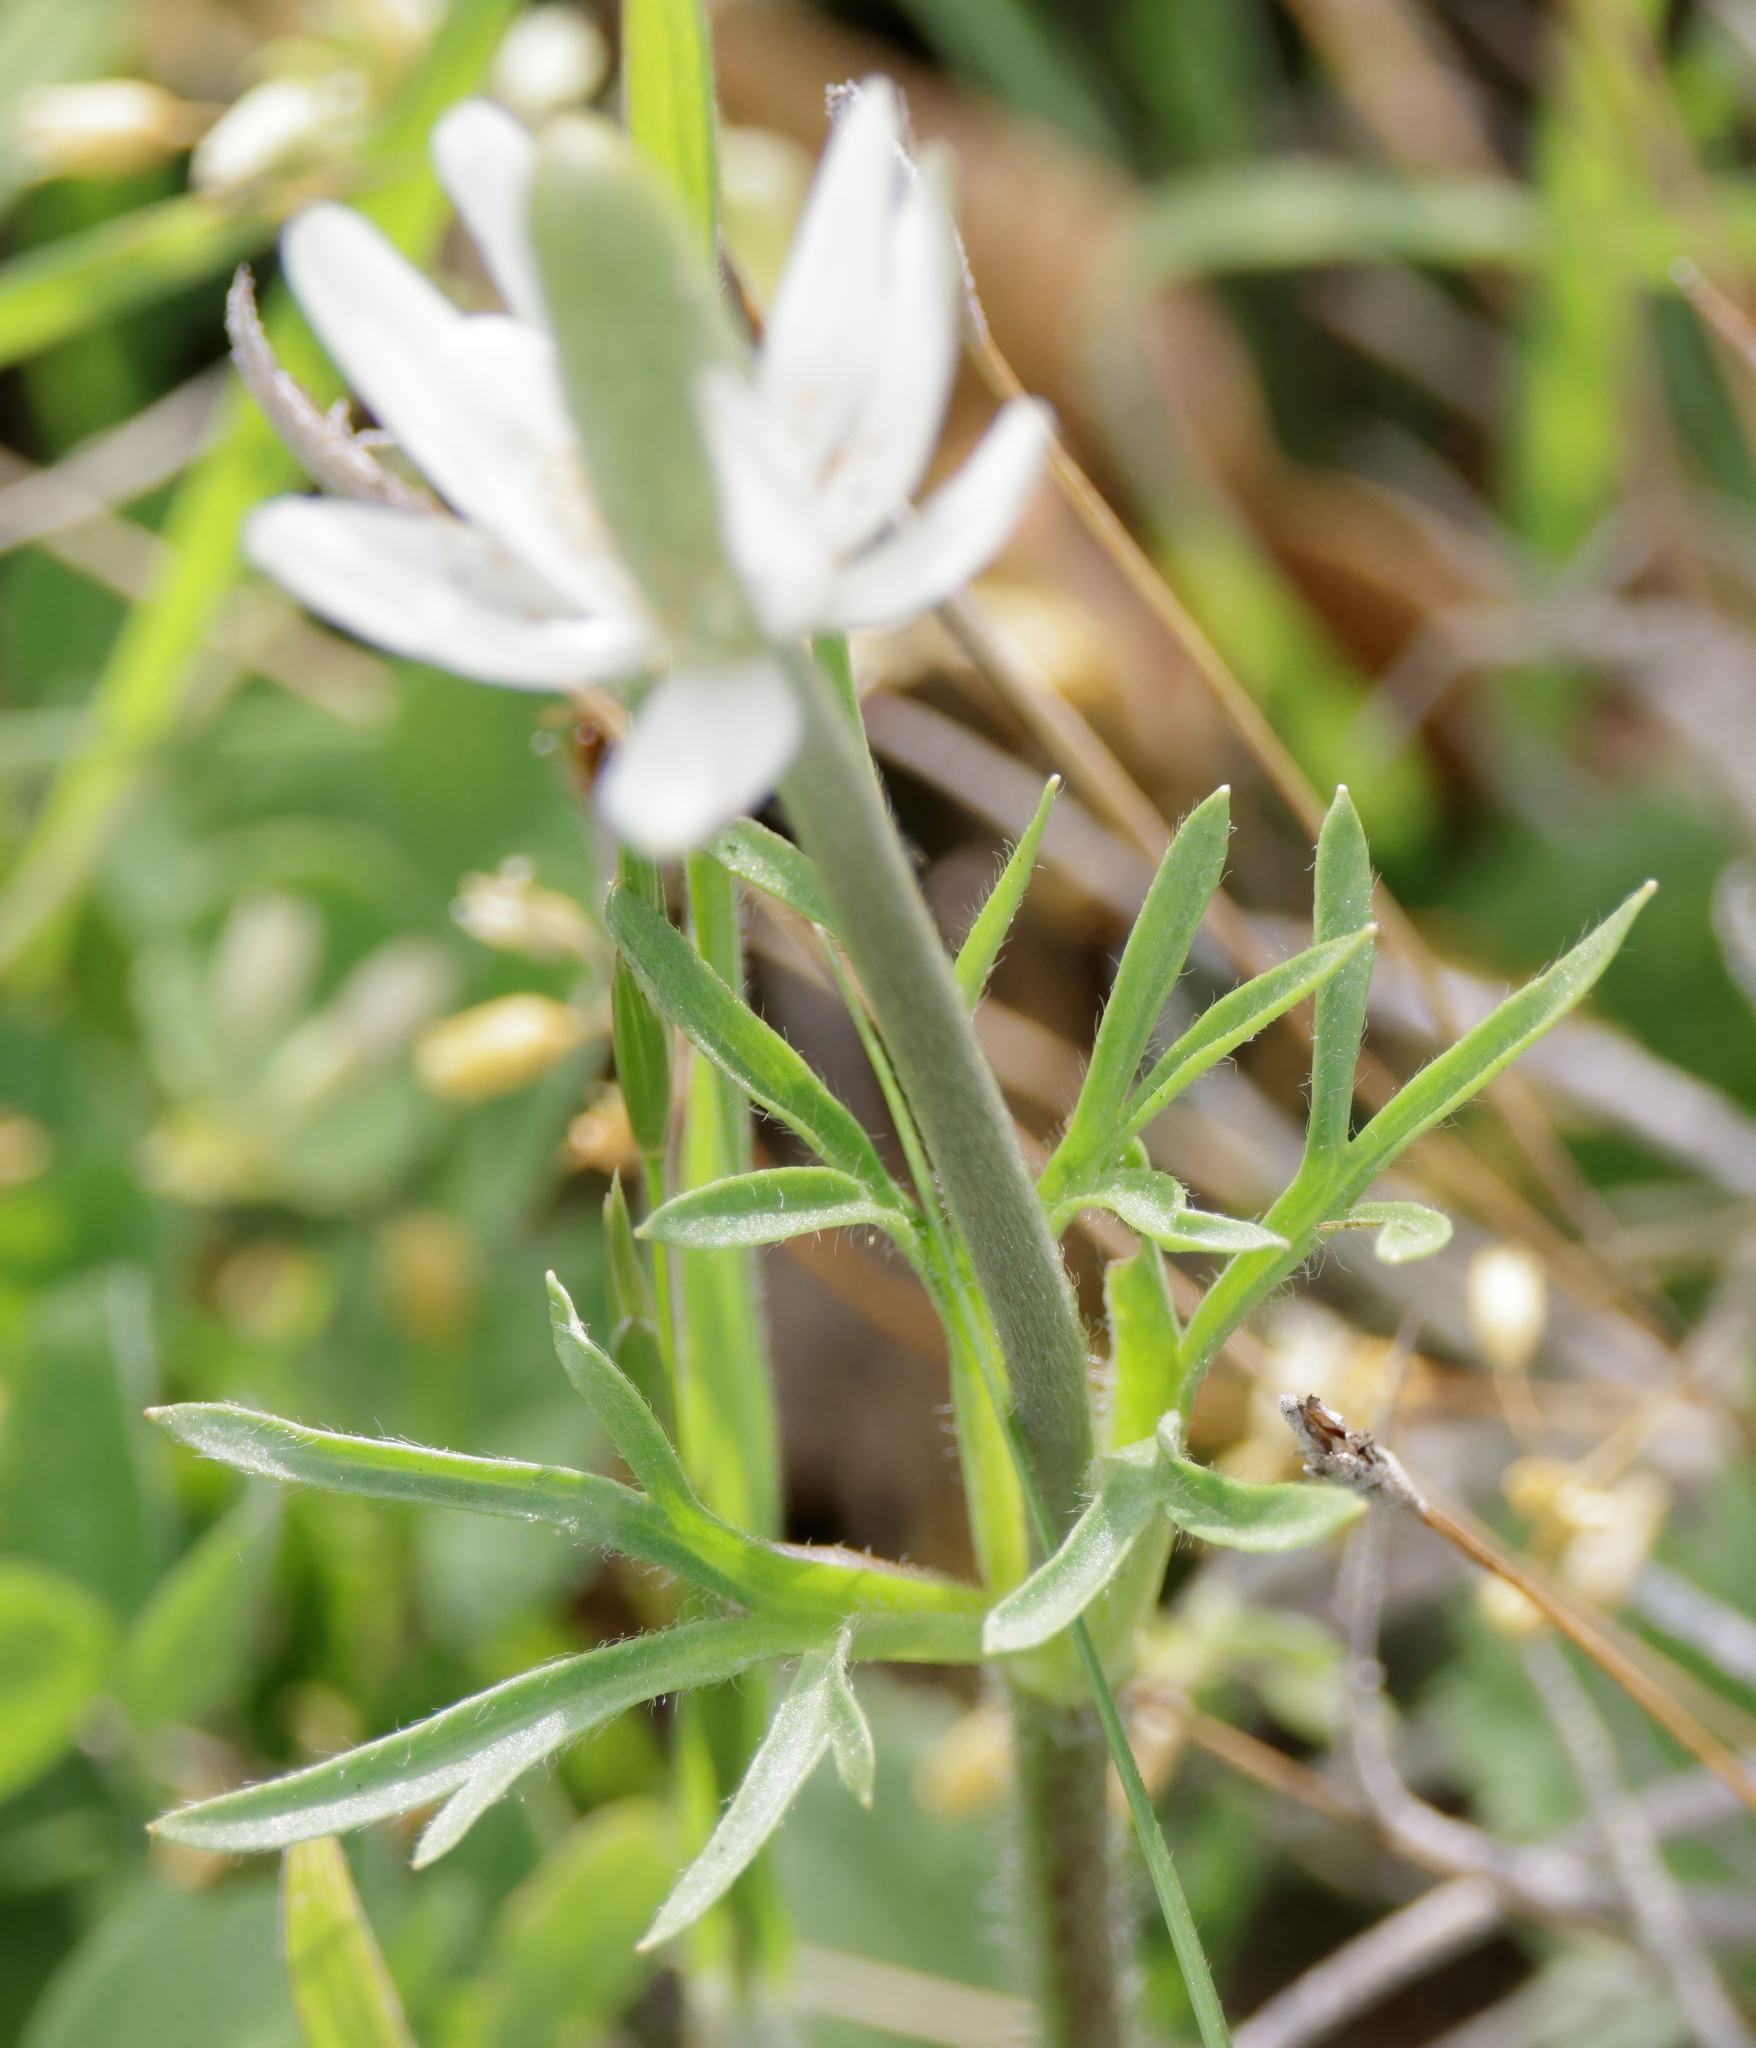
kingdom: Plantae
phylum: Tracheophyta
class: Magnoliopsida
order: Ranunculales
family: Ranunculaceae
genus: Anemone
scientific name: Anemone berlandieri
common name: Ten-petal anemone
